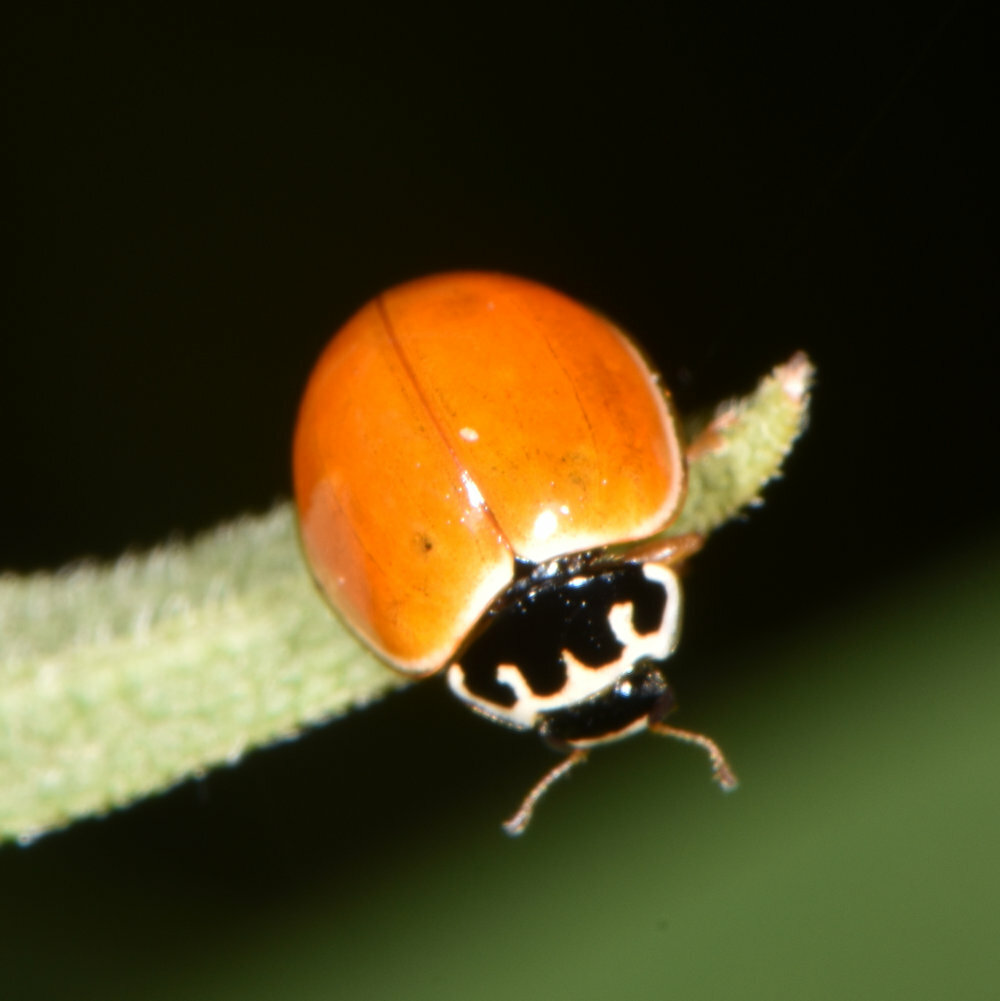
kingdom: Animalia
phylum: Arthropoda
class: Insecta
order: Coleoptera
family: Coccinellidae
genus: Cycloneda
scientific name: Cycloneda munda
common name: Polished lady beetle
